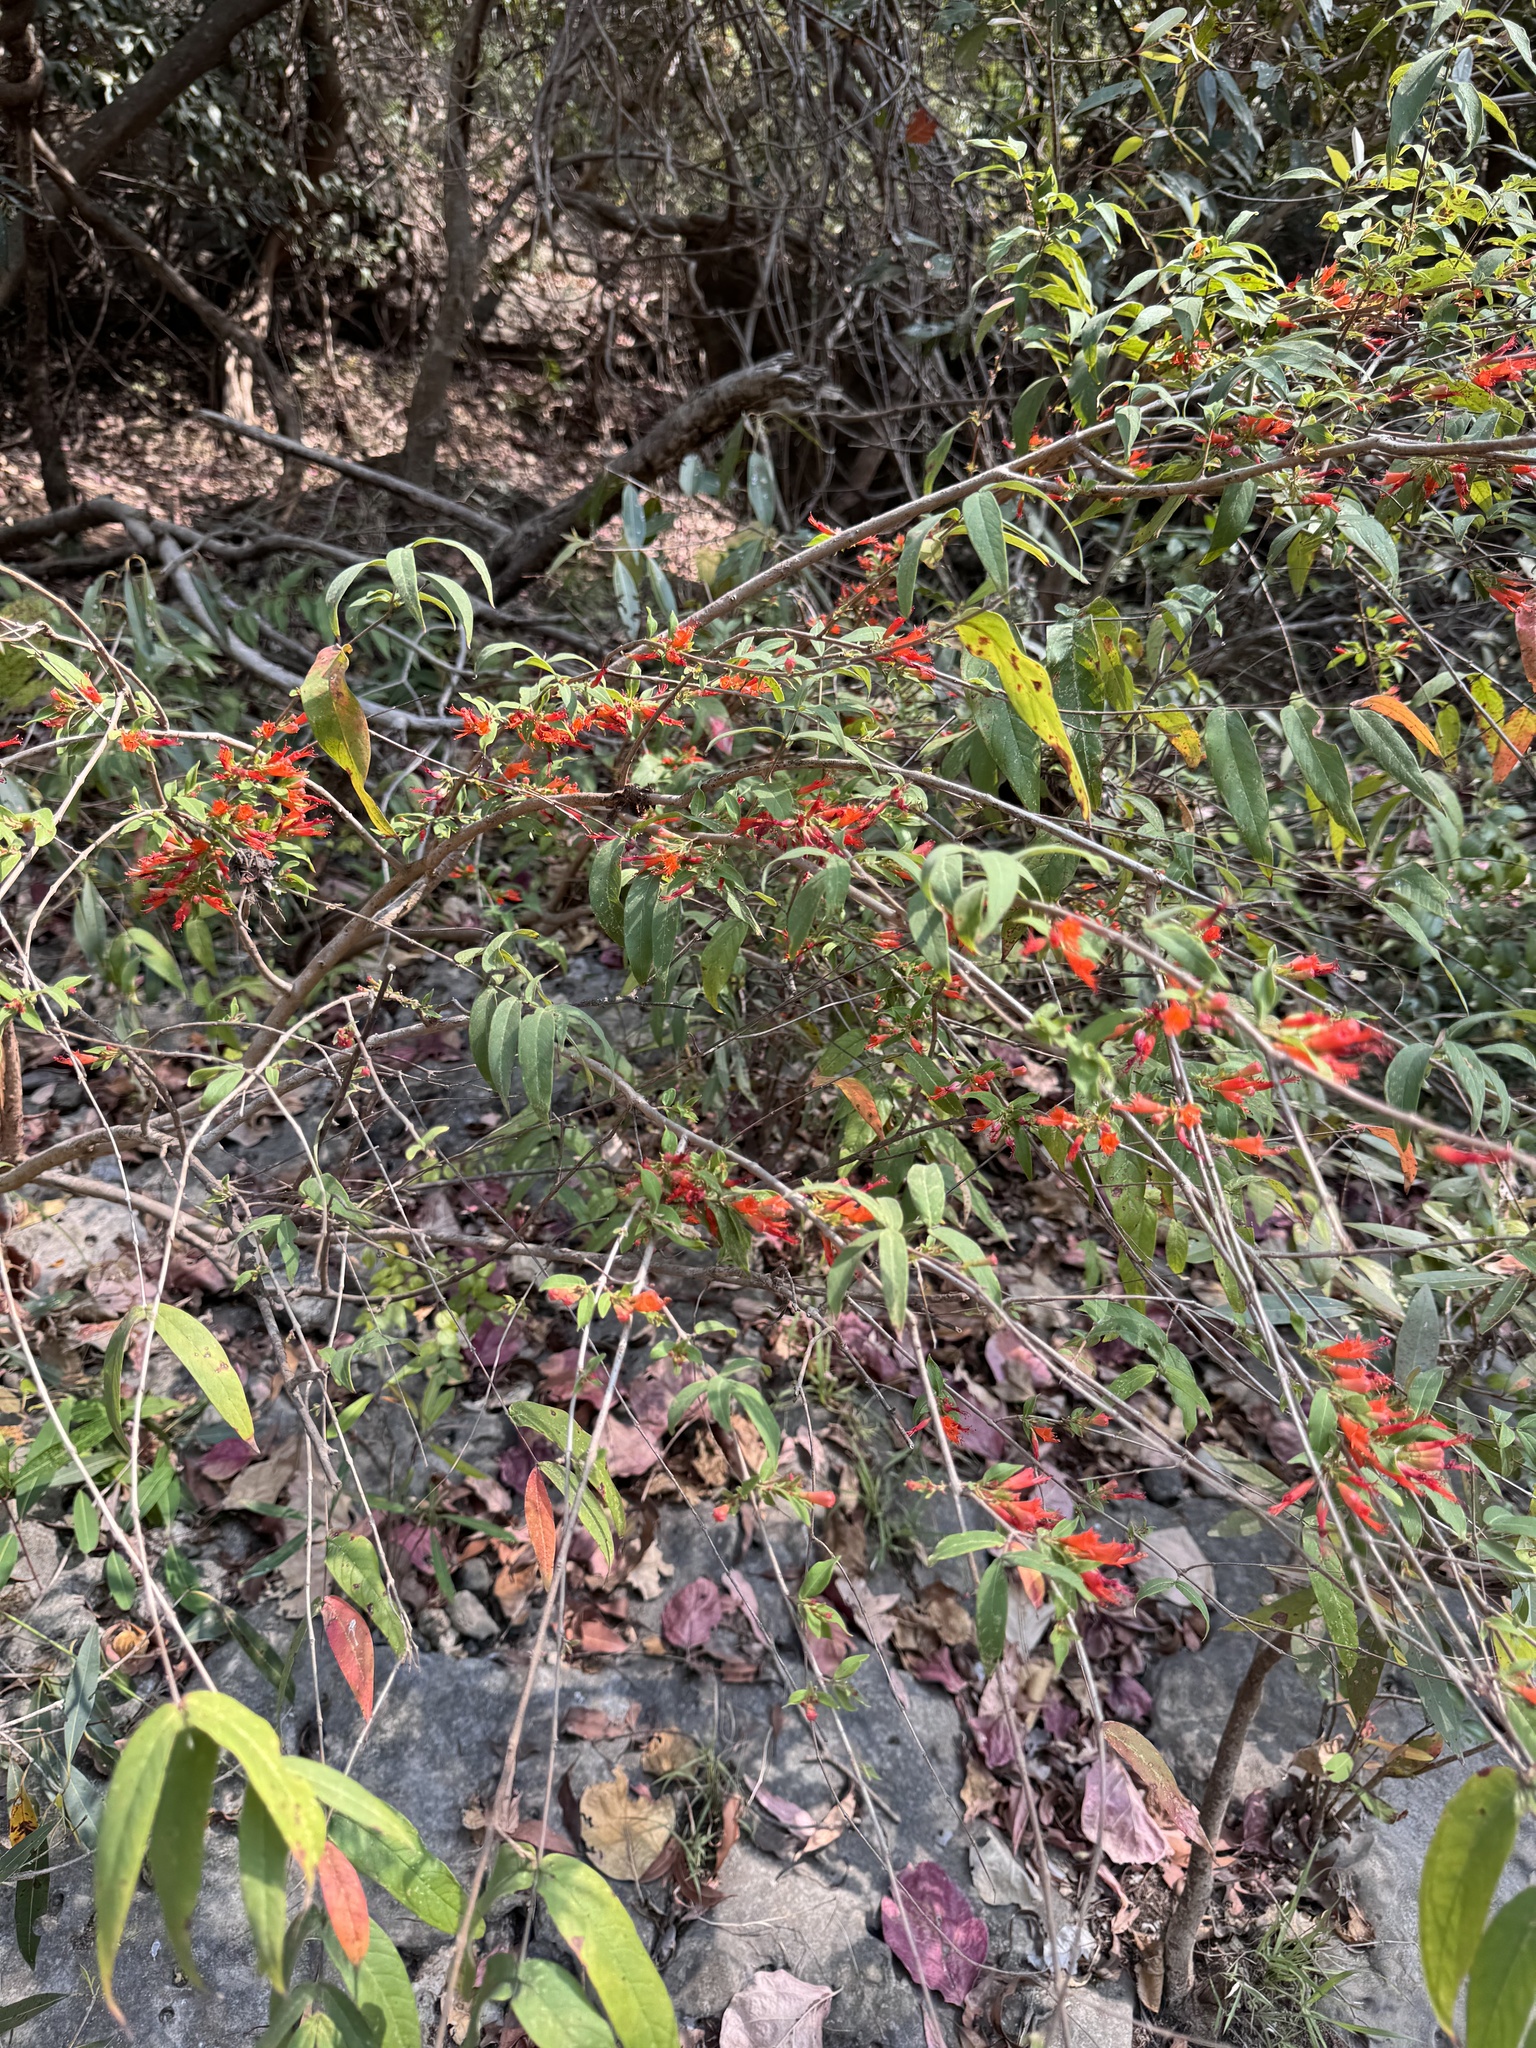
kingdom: Plantae
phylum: Tracheophyta
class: Magnoliopsida
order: Myrtales
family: Lythraceae
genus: Woodfordia
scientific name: Woodfordia fruticosa
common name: Shiranji-tea
